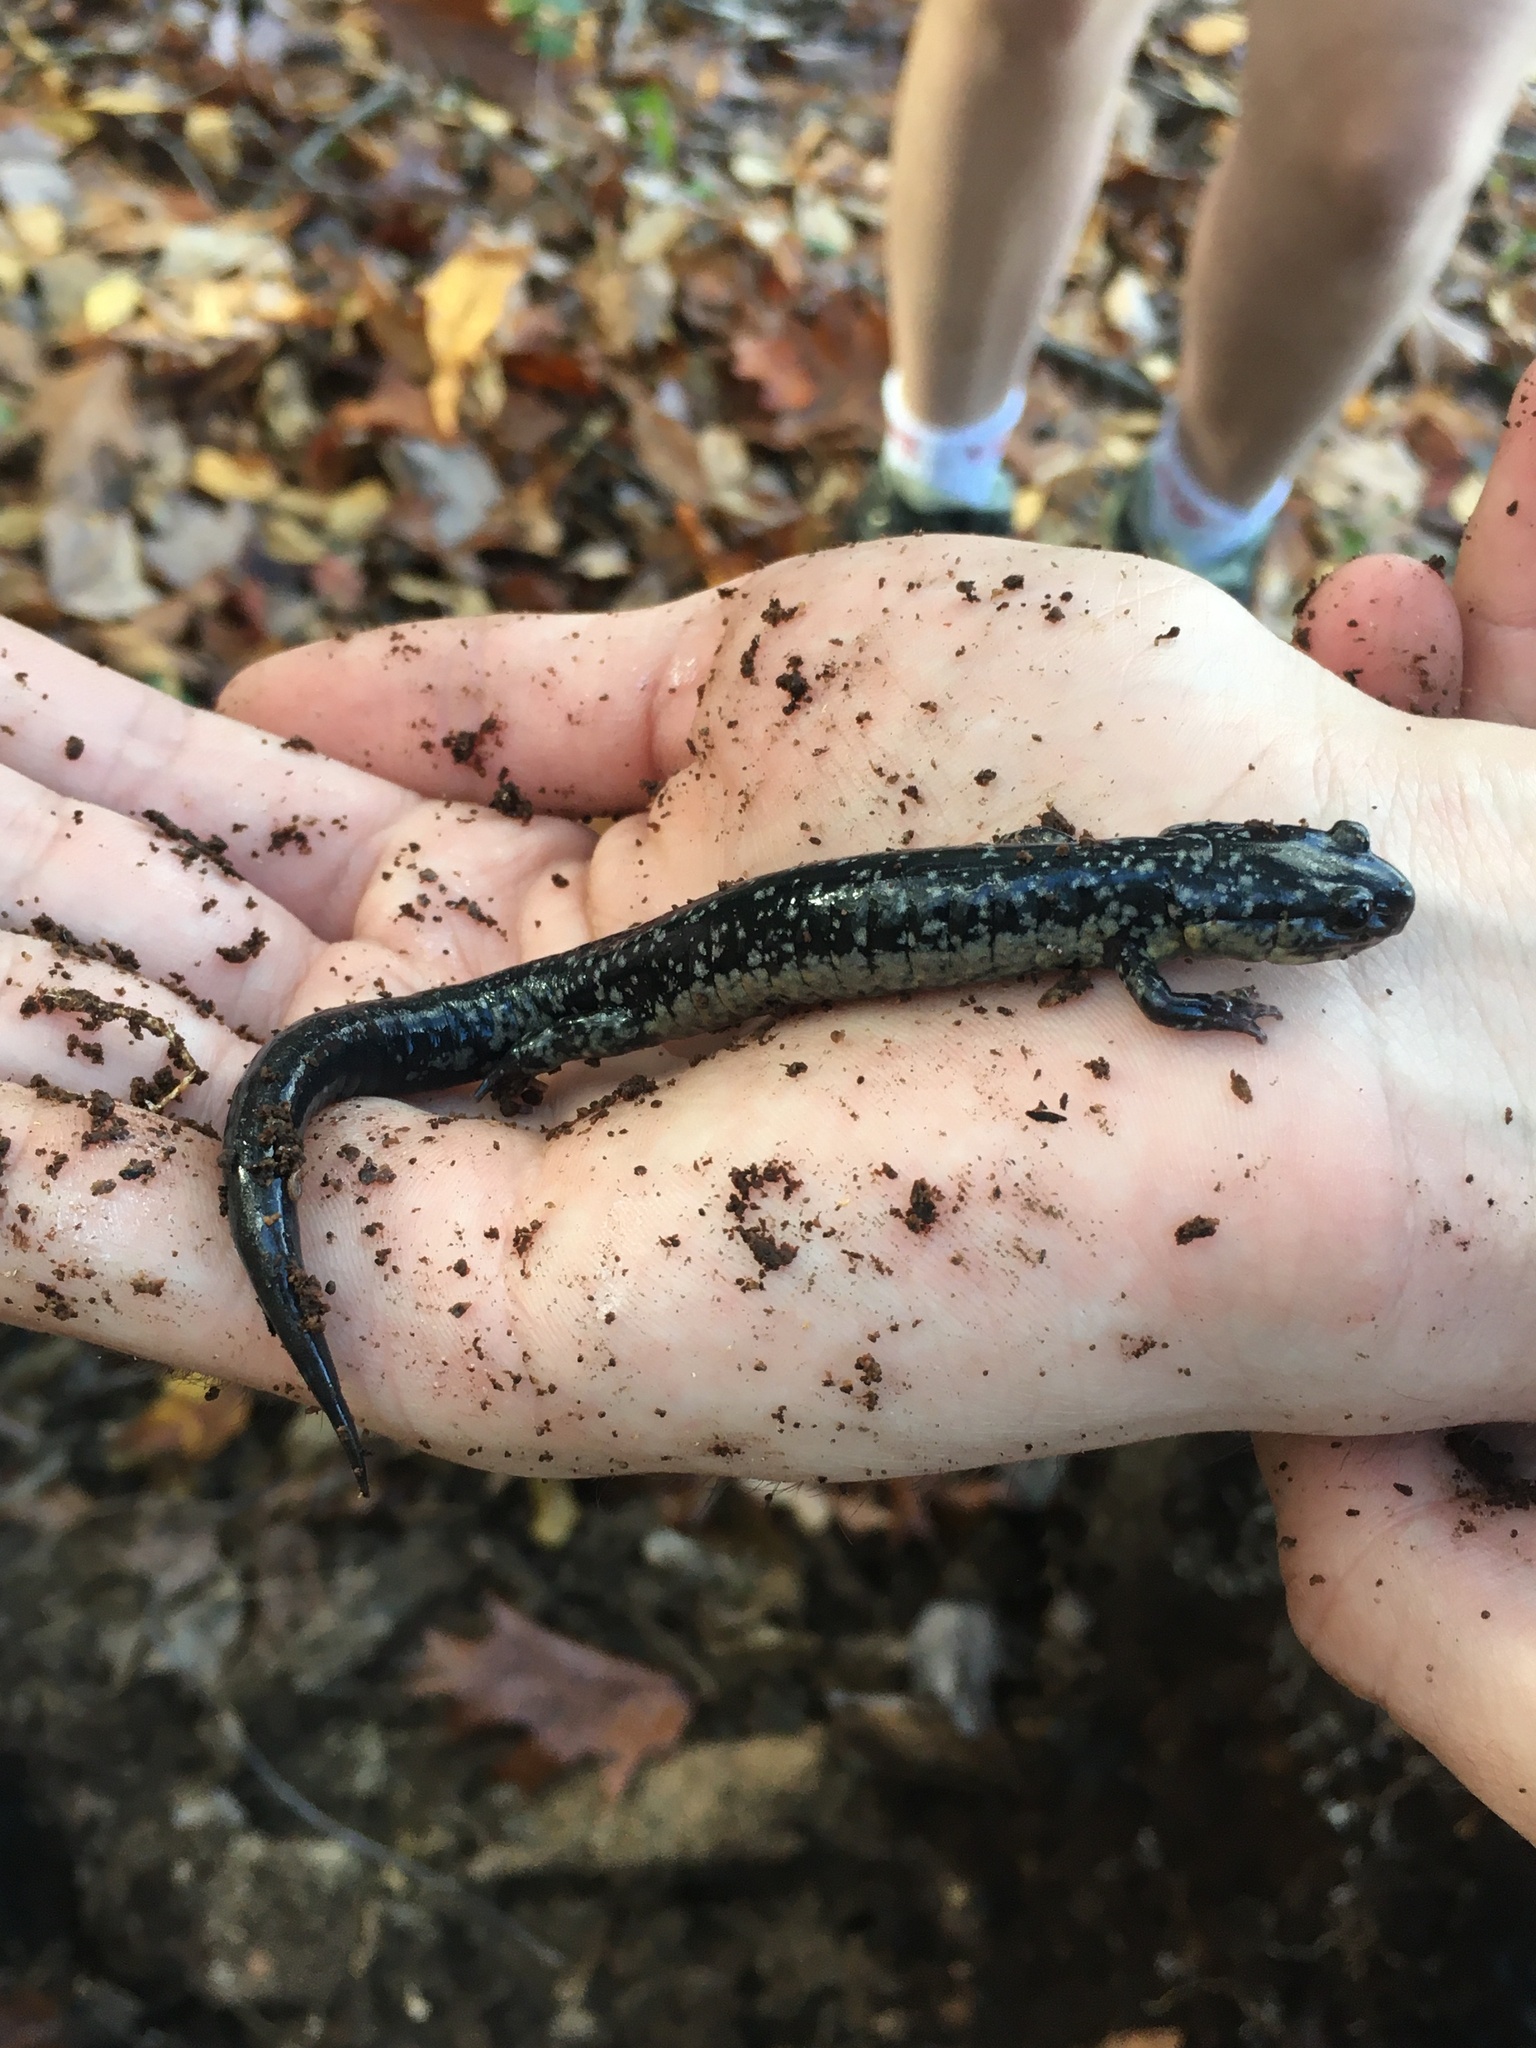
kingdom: Animalia
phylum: Chordata
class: Amphibia
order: Caudata
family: Plethodontidae
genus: Plethodon
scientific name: Plethodon cylindraceus
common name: White-spotted slimy salamander
